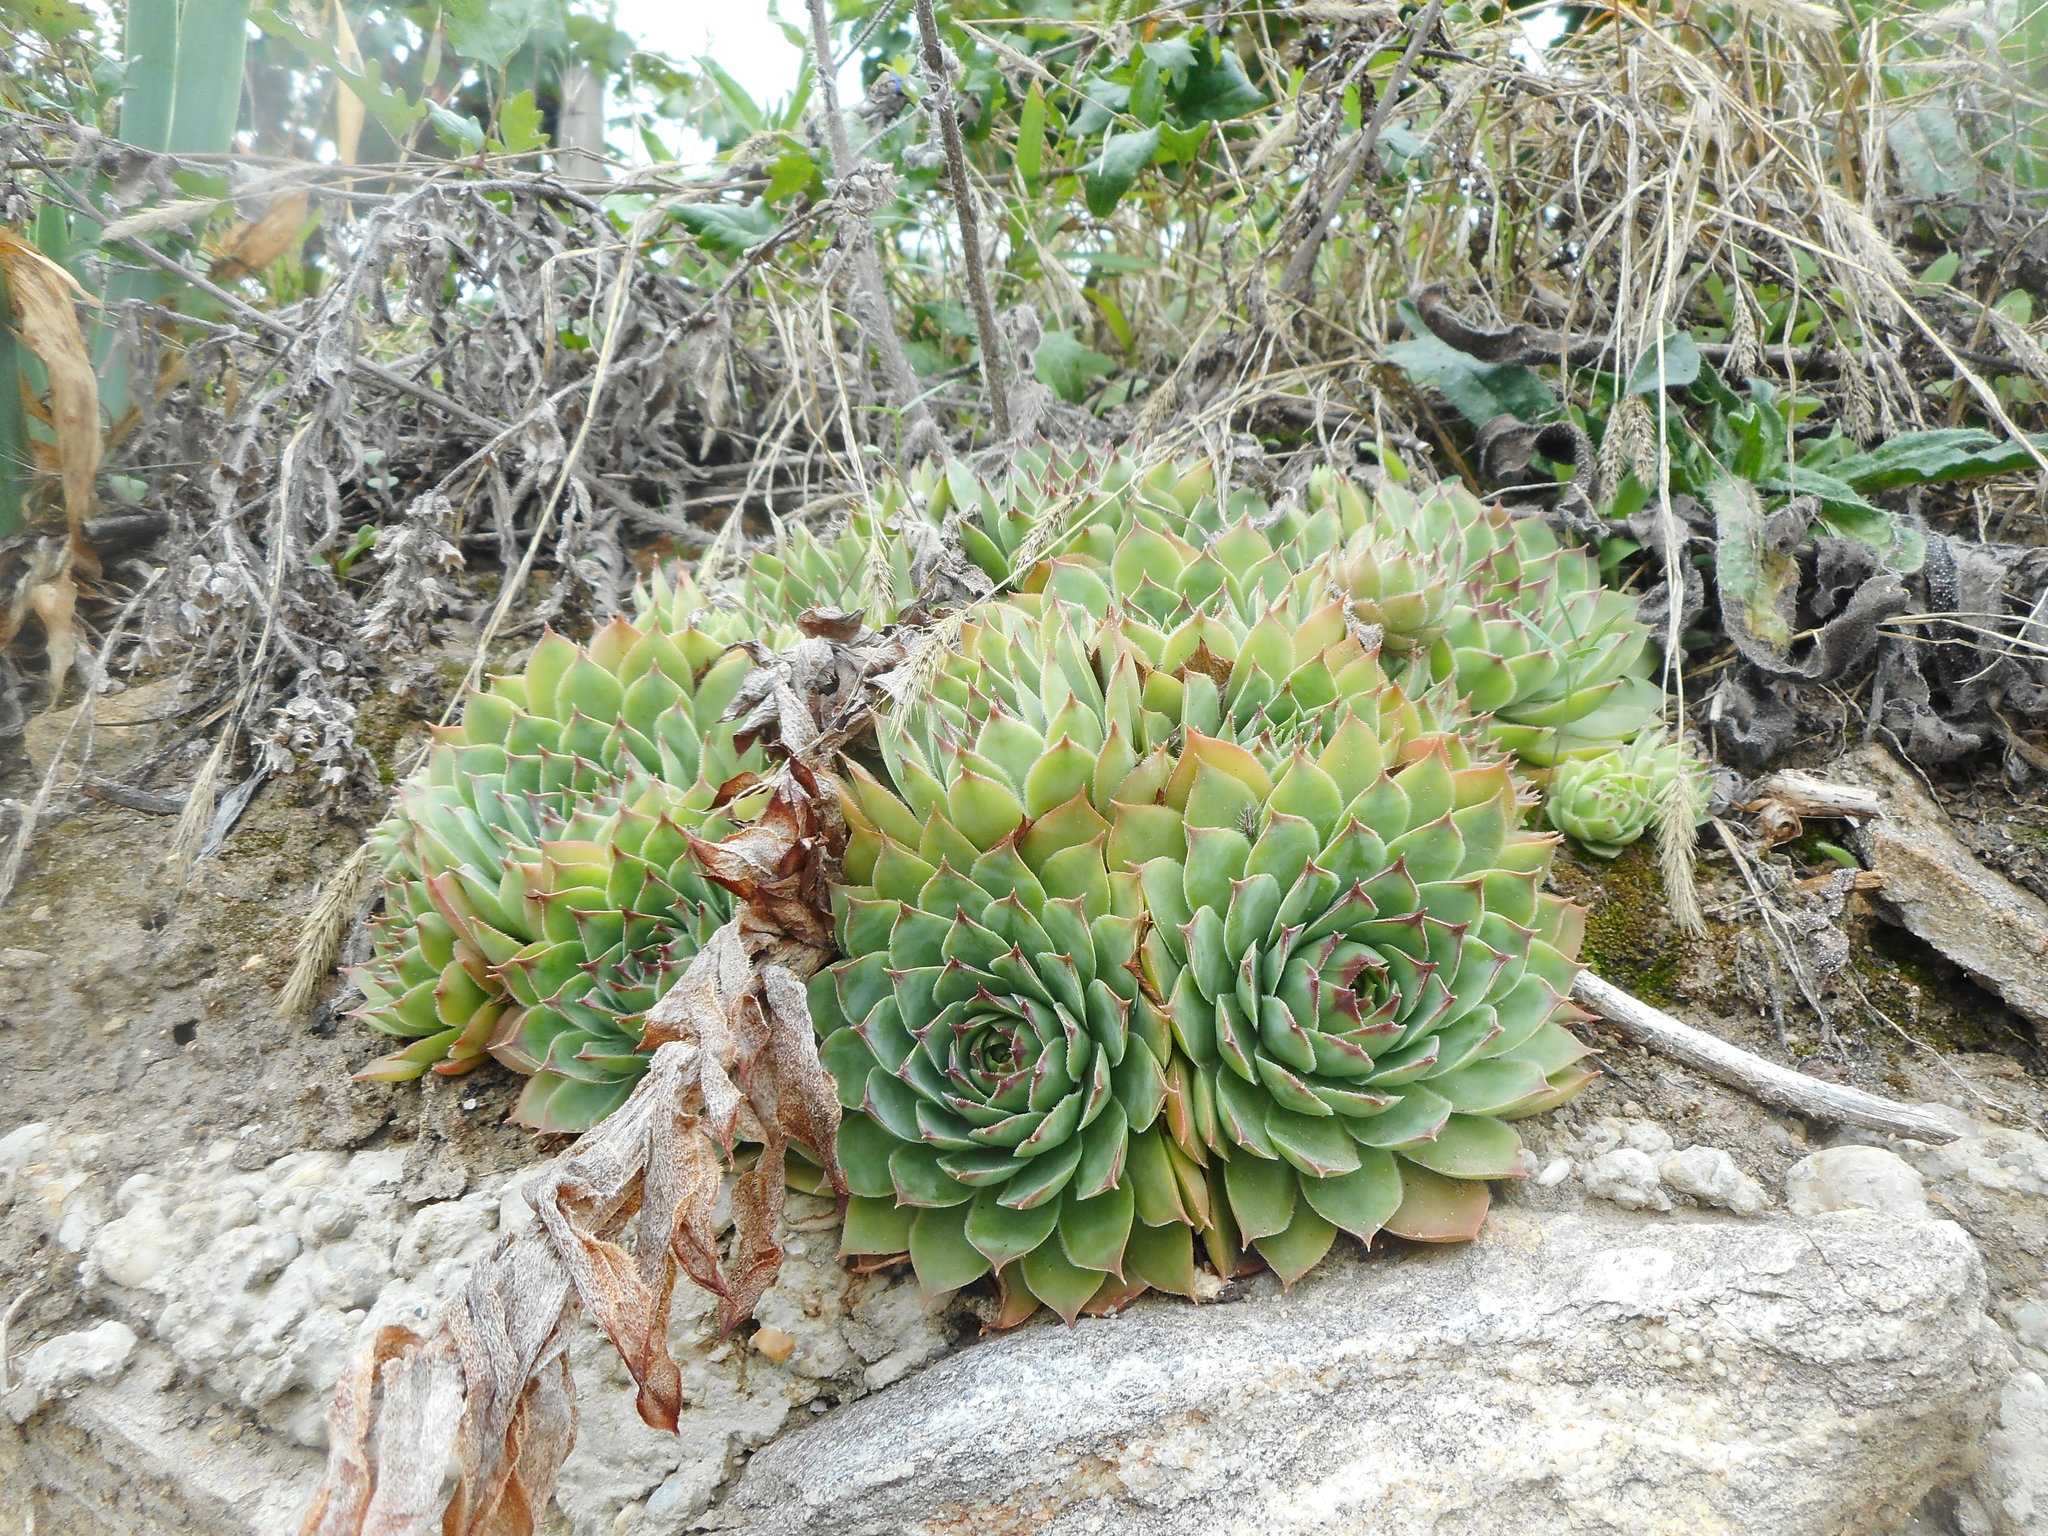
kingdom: Plantae
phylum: Tracheophyta
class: Magnoliopsida
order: Saxifragales
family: Crassulaceae
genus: Sempervivum
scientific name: Sempervivum tectorum
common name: House-leek
